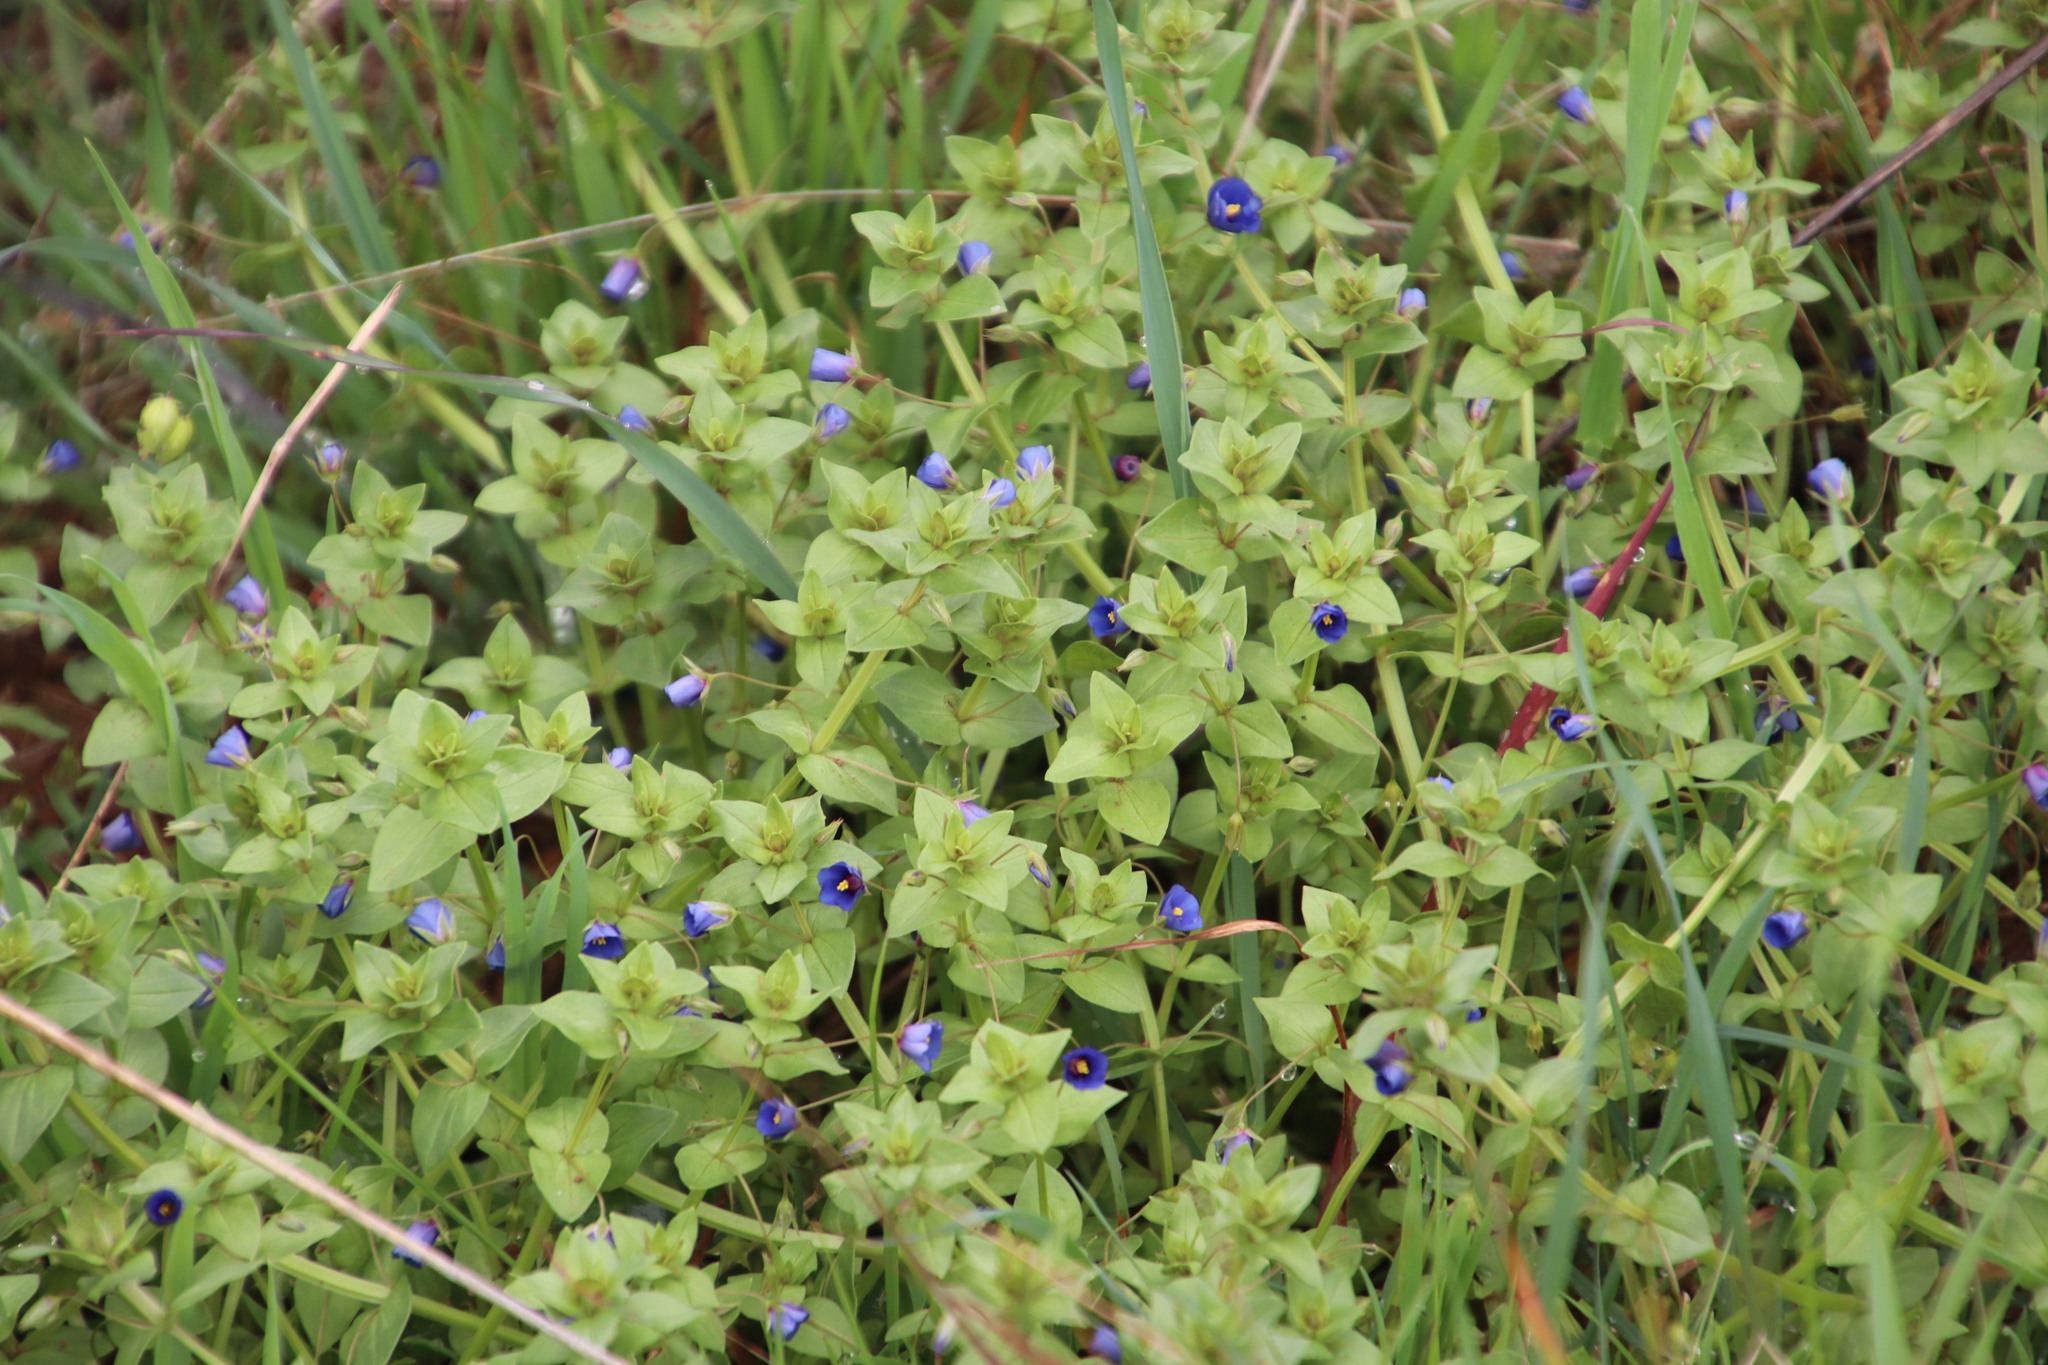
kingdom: Plantae
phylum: Tracheophyta
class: Magnoliopsida
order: Ericales
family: Primulaceae
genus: Lysimachia
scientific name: Lysimachia loeflingii
